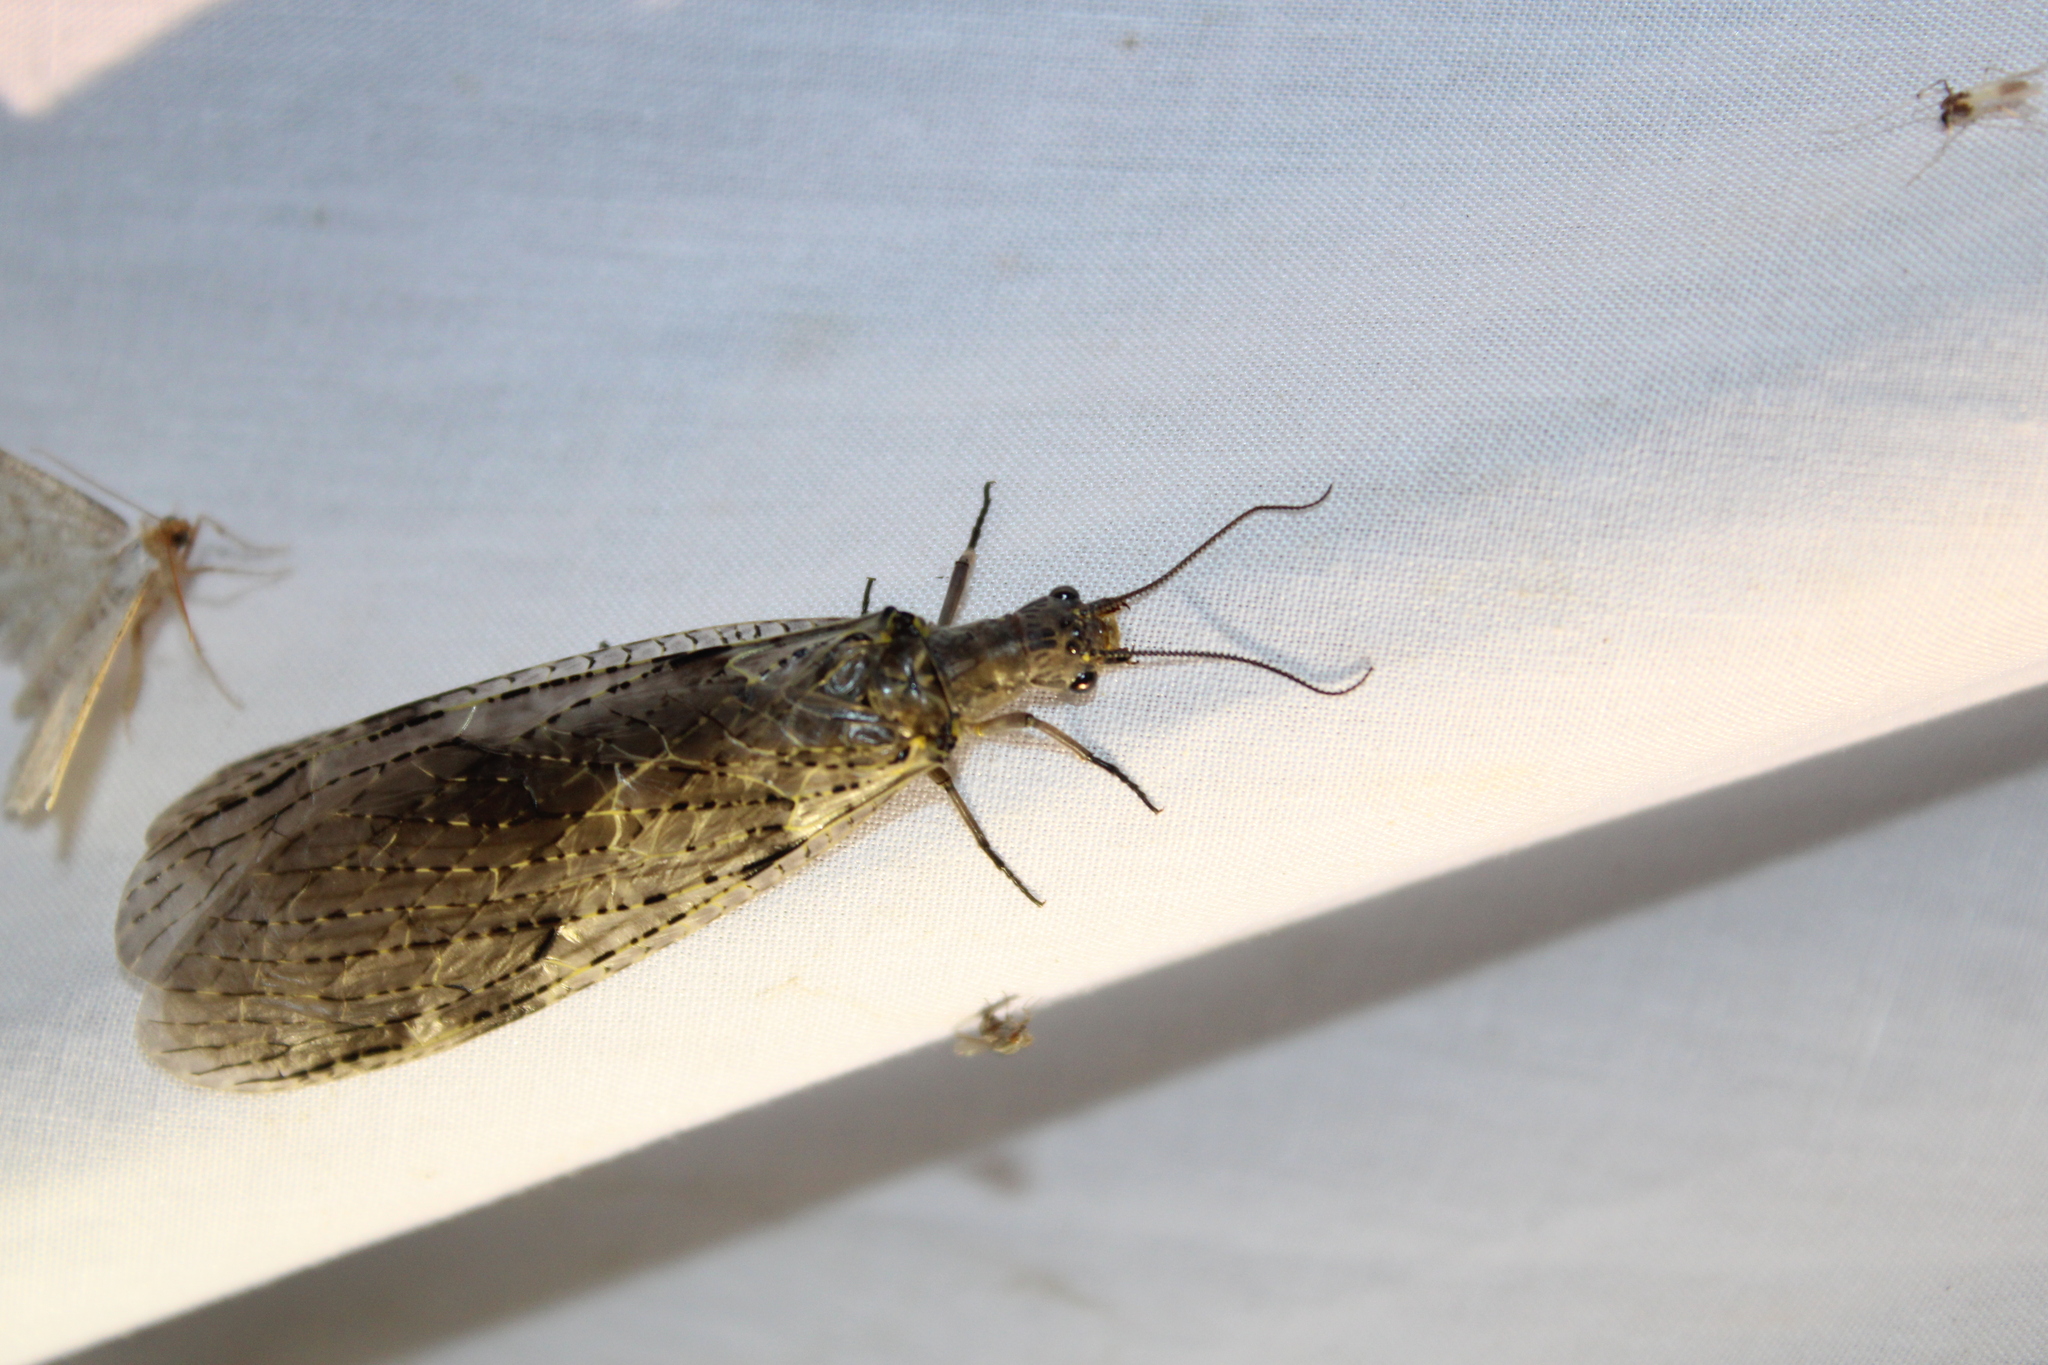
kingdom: Animalia
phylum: Arthropoda
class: Insecta
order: Megaloptera
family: Corydalidae
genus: Chauliodes
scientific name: Chauliodes rastricornis
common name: Spring fishfly
